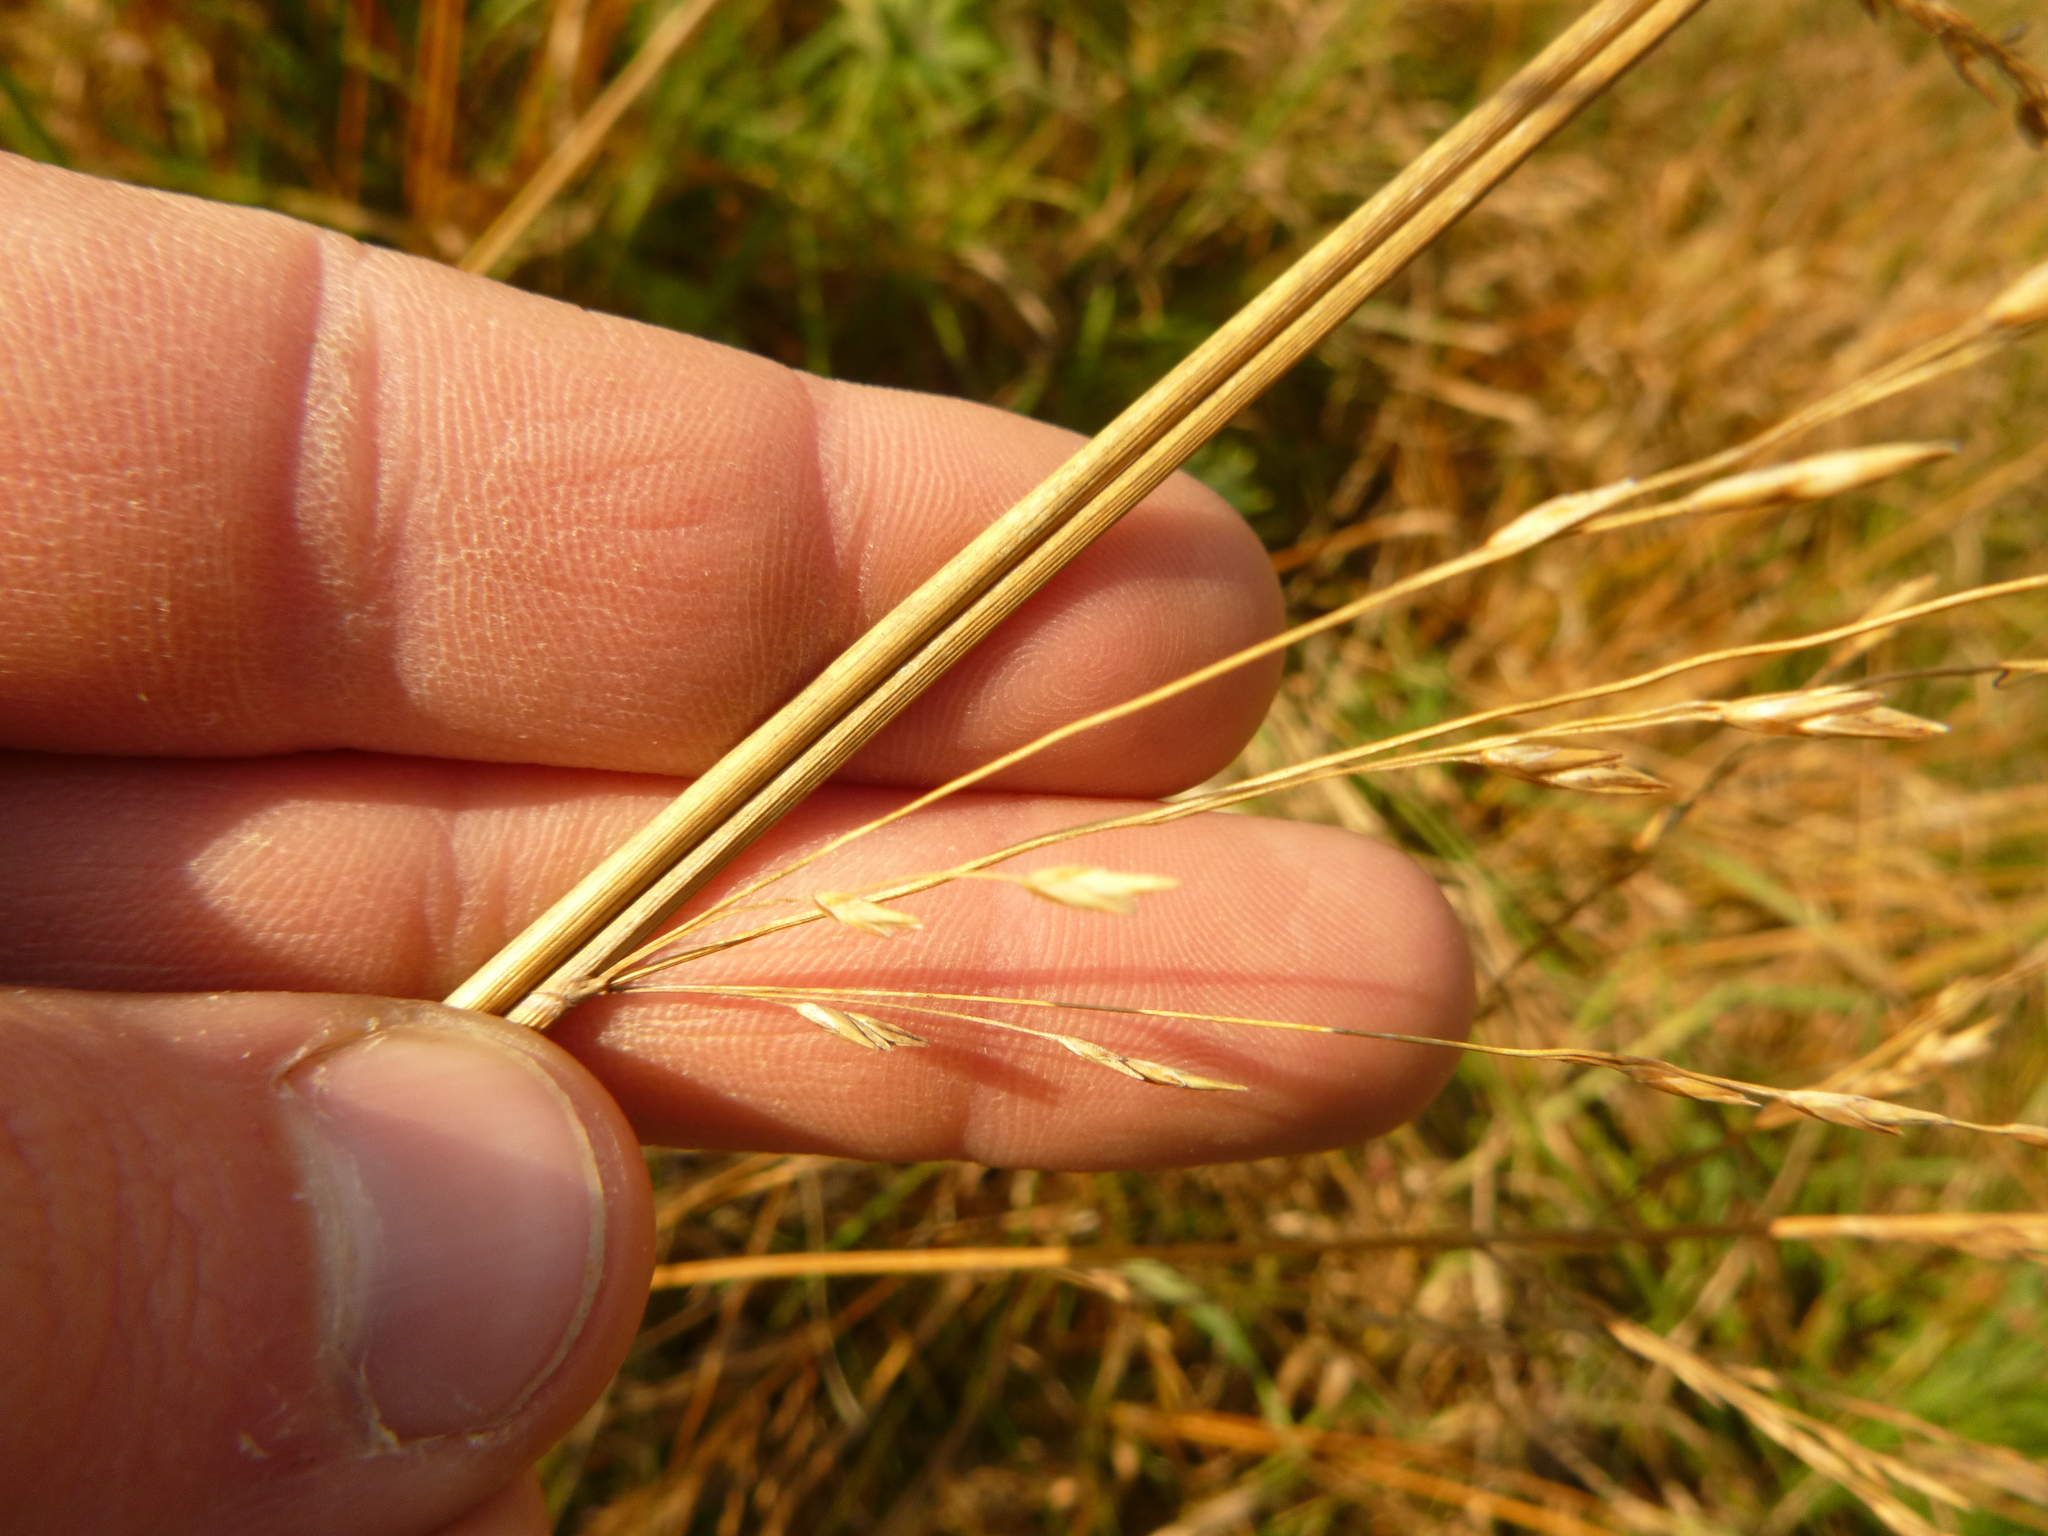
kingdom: Plantae
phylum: Tracheophyta
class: Liliopsida
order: Poales
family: Poaceae
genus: Molinia
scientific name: Molinia caerulea
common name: Purple moor-grass
